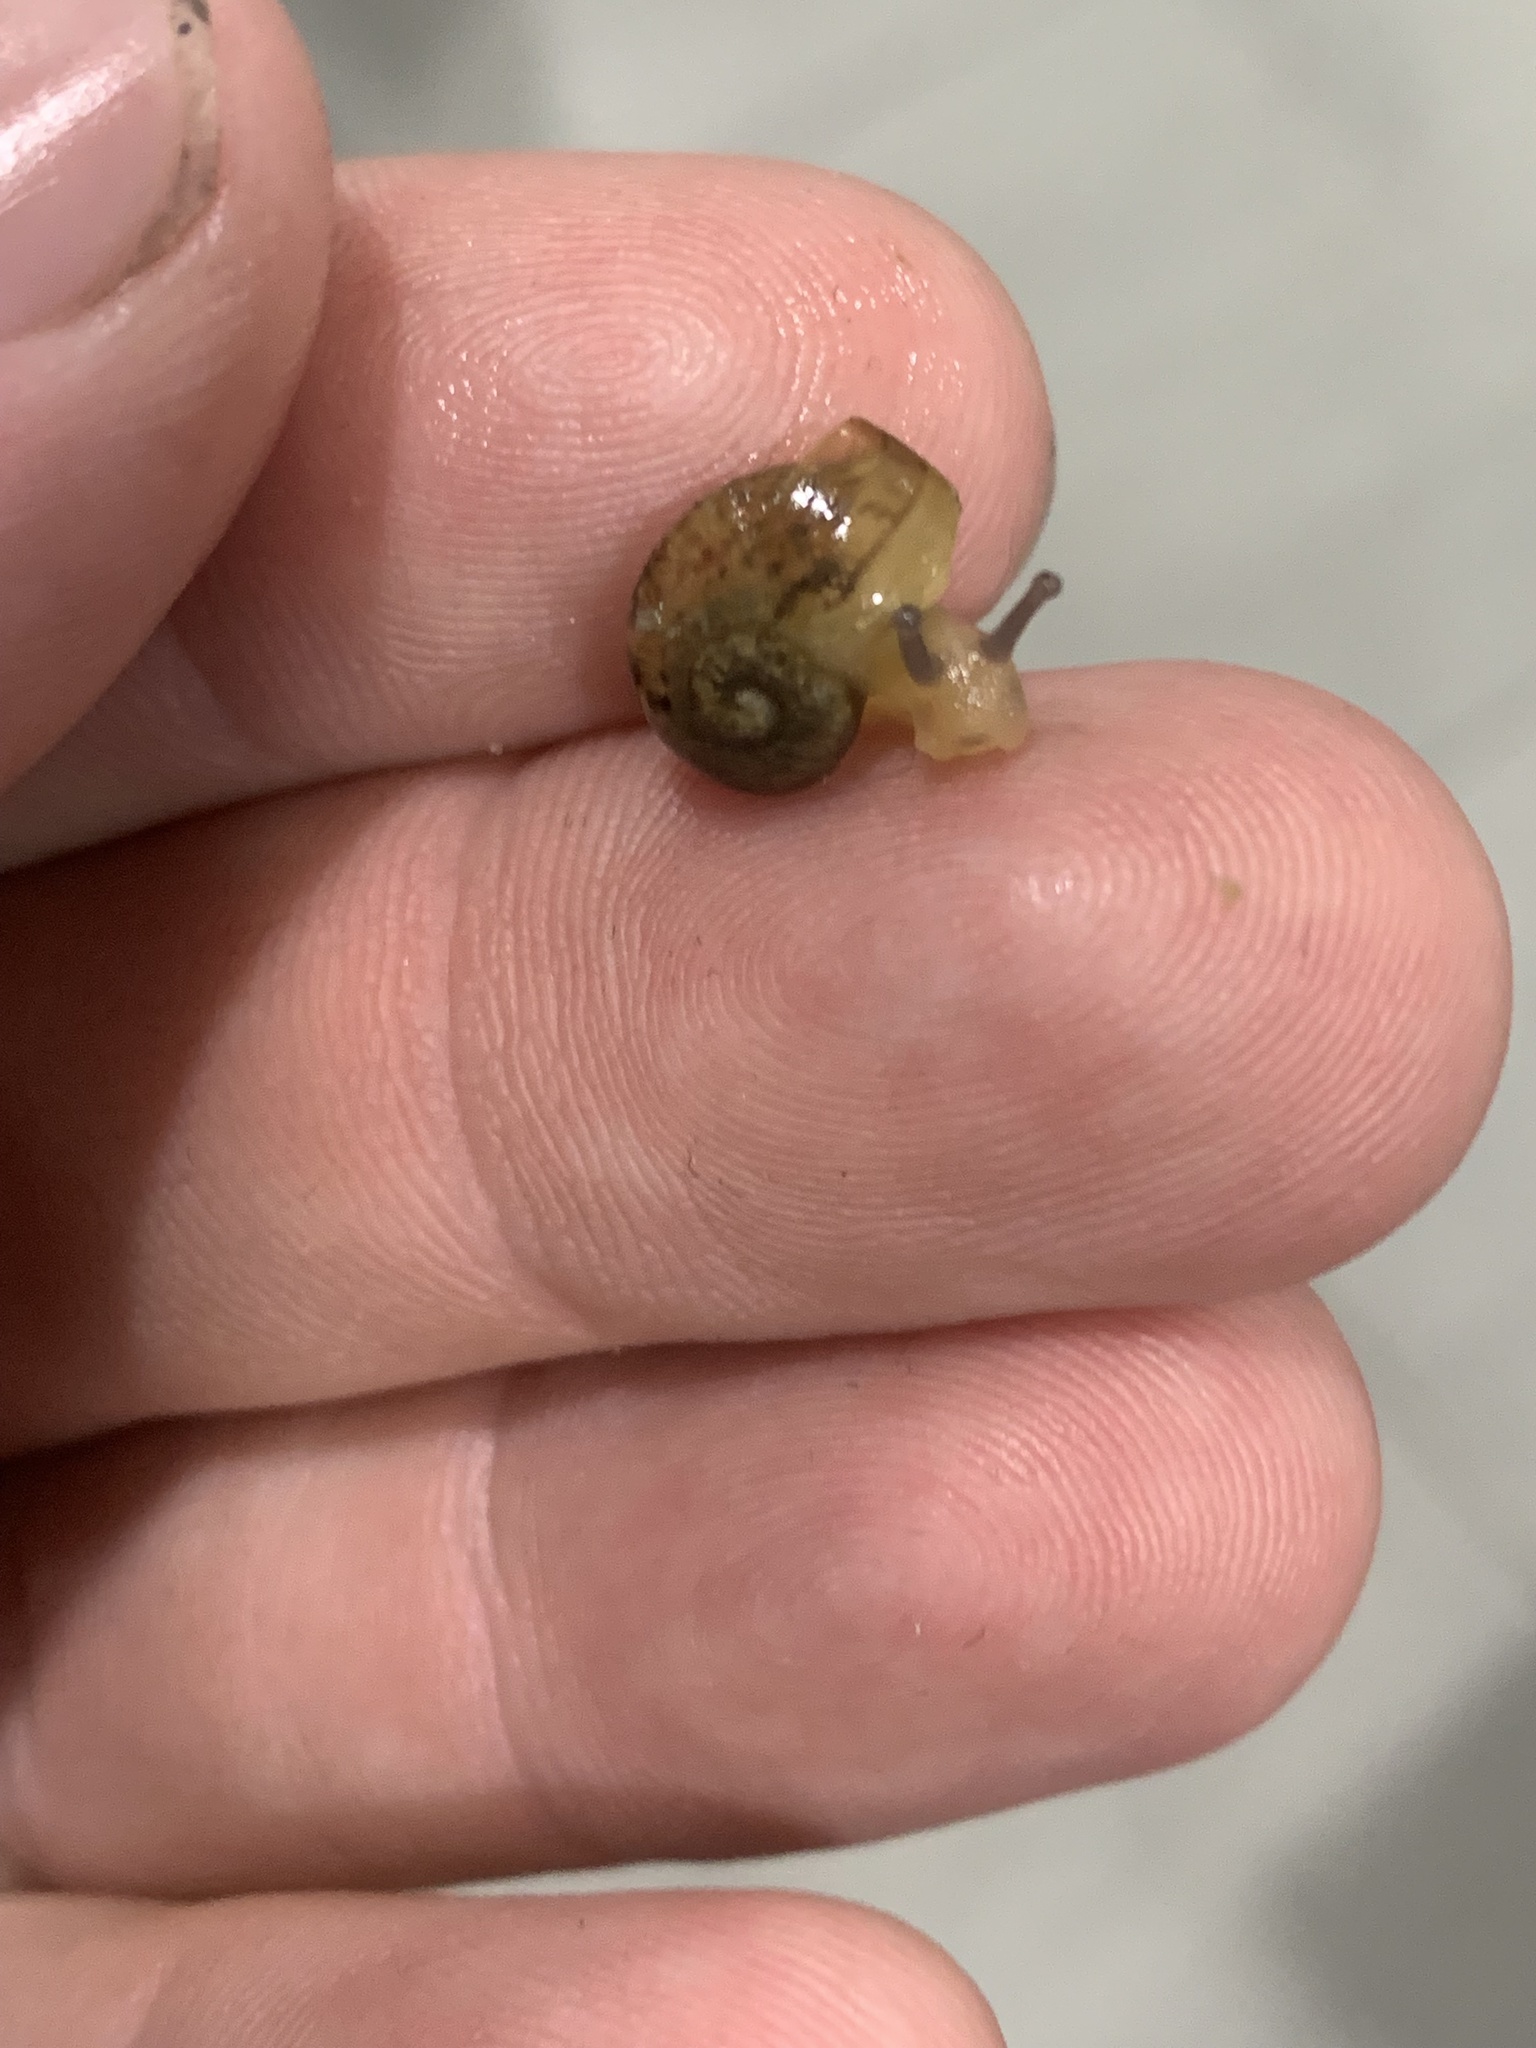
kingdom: Animalia
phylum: Mollusca
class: Gastropoda
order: Stylommatophora
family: Helicidae
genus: Cornu
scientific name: Cornu aspersum
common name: Brown garden snail
